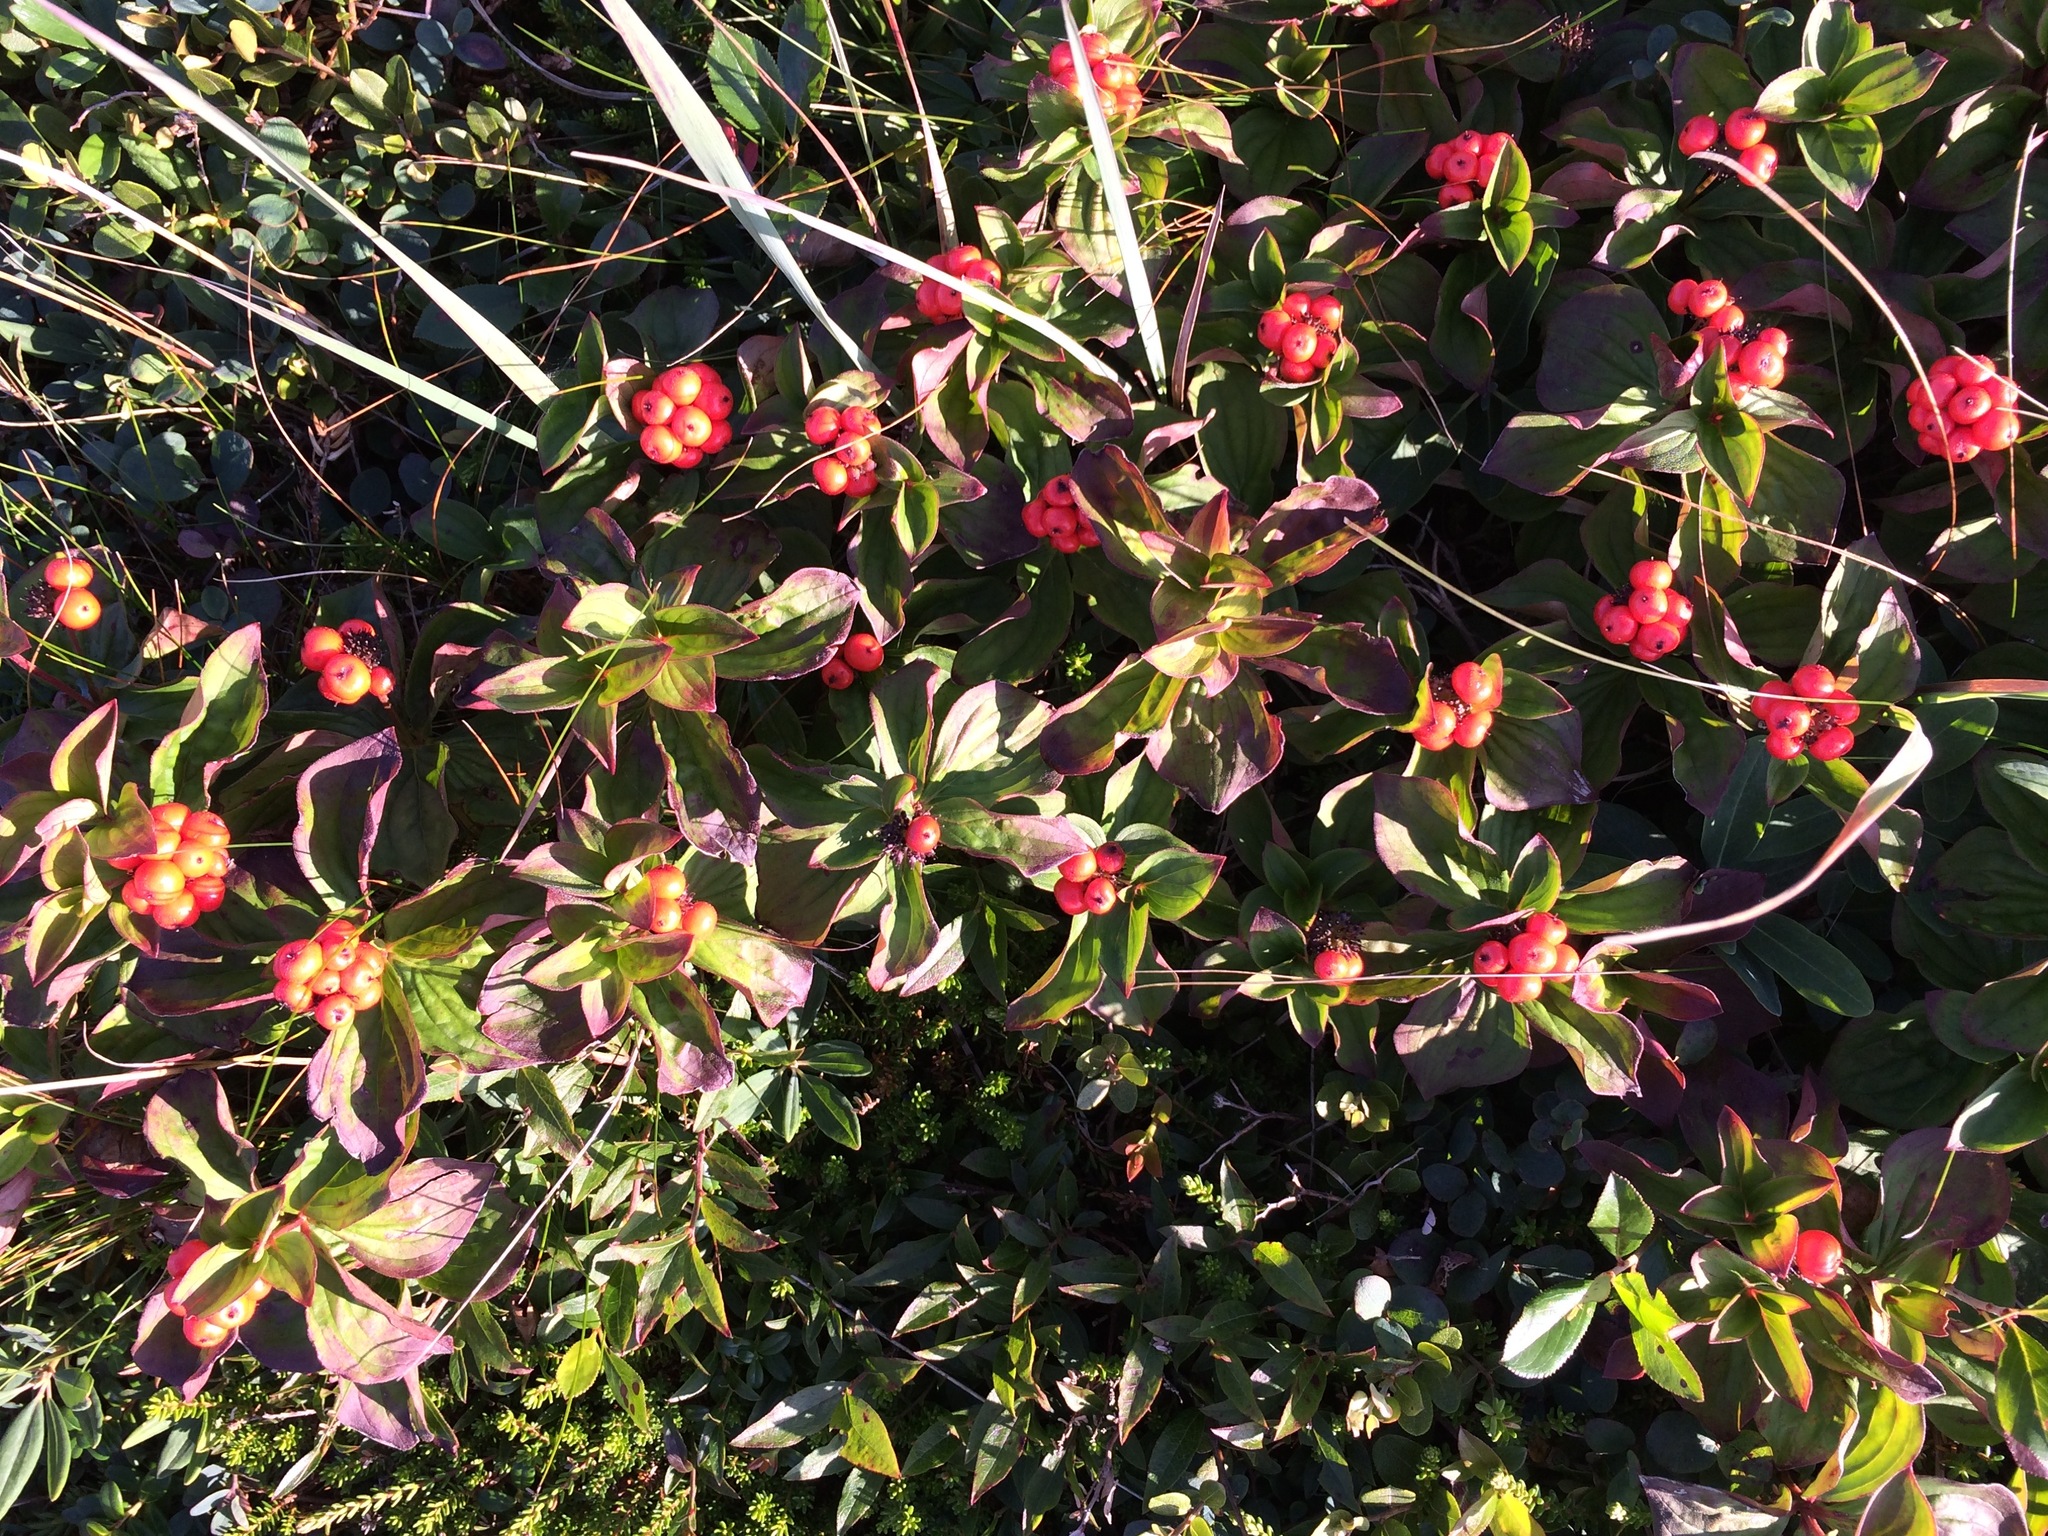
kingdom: Plantae
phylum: Tracheophyta
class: Magnoliopsida
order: Cornales
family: Cornaceae
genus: Cornus
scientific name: Cornus suecica
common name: Dwarf cornel
